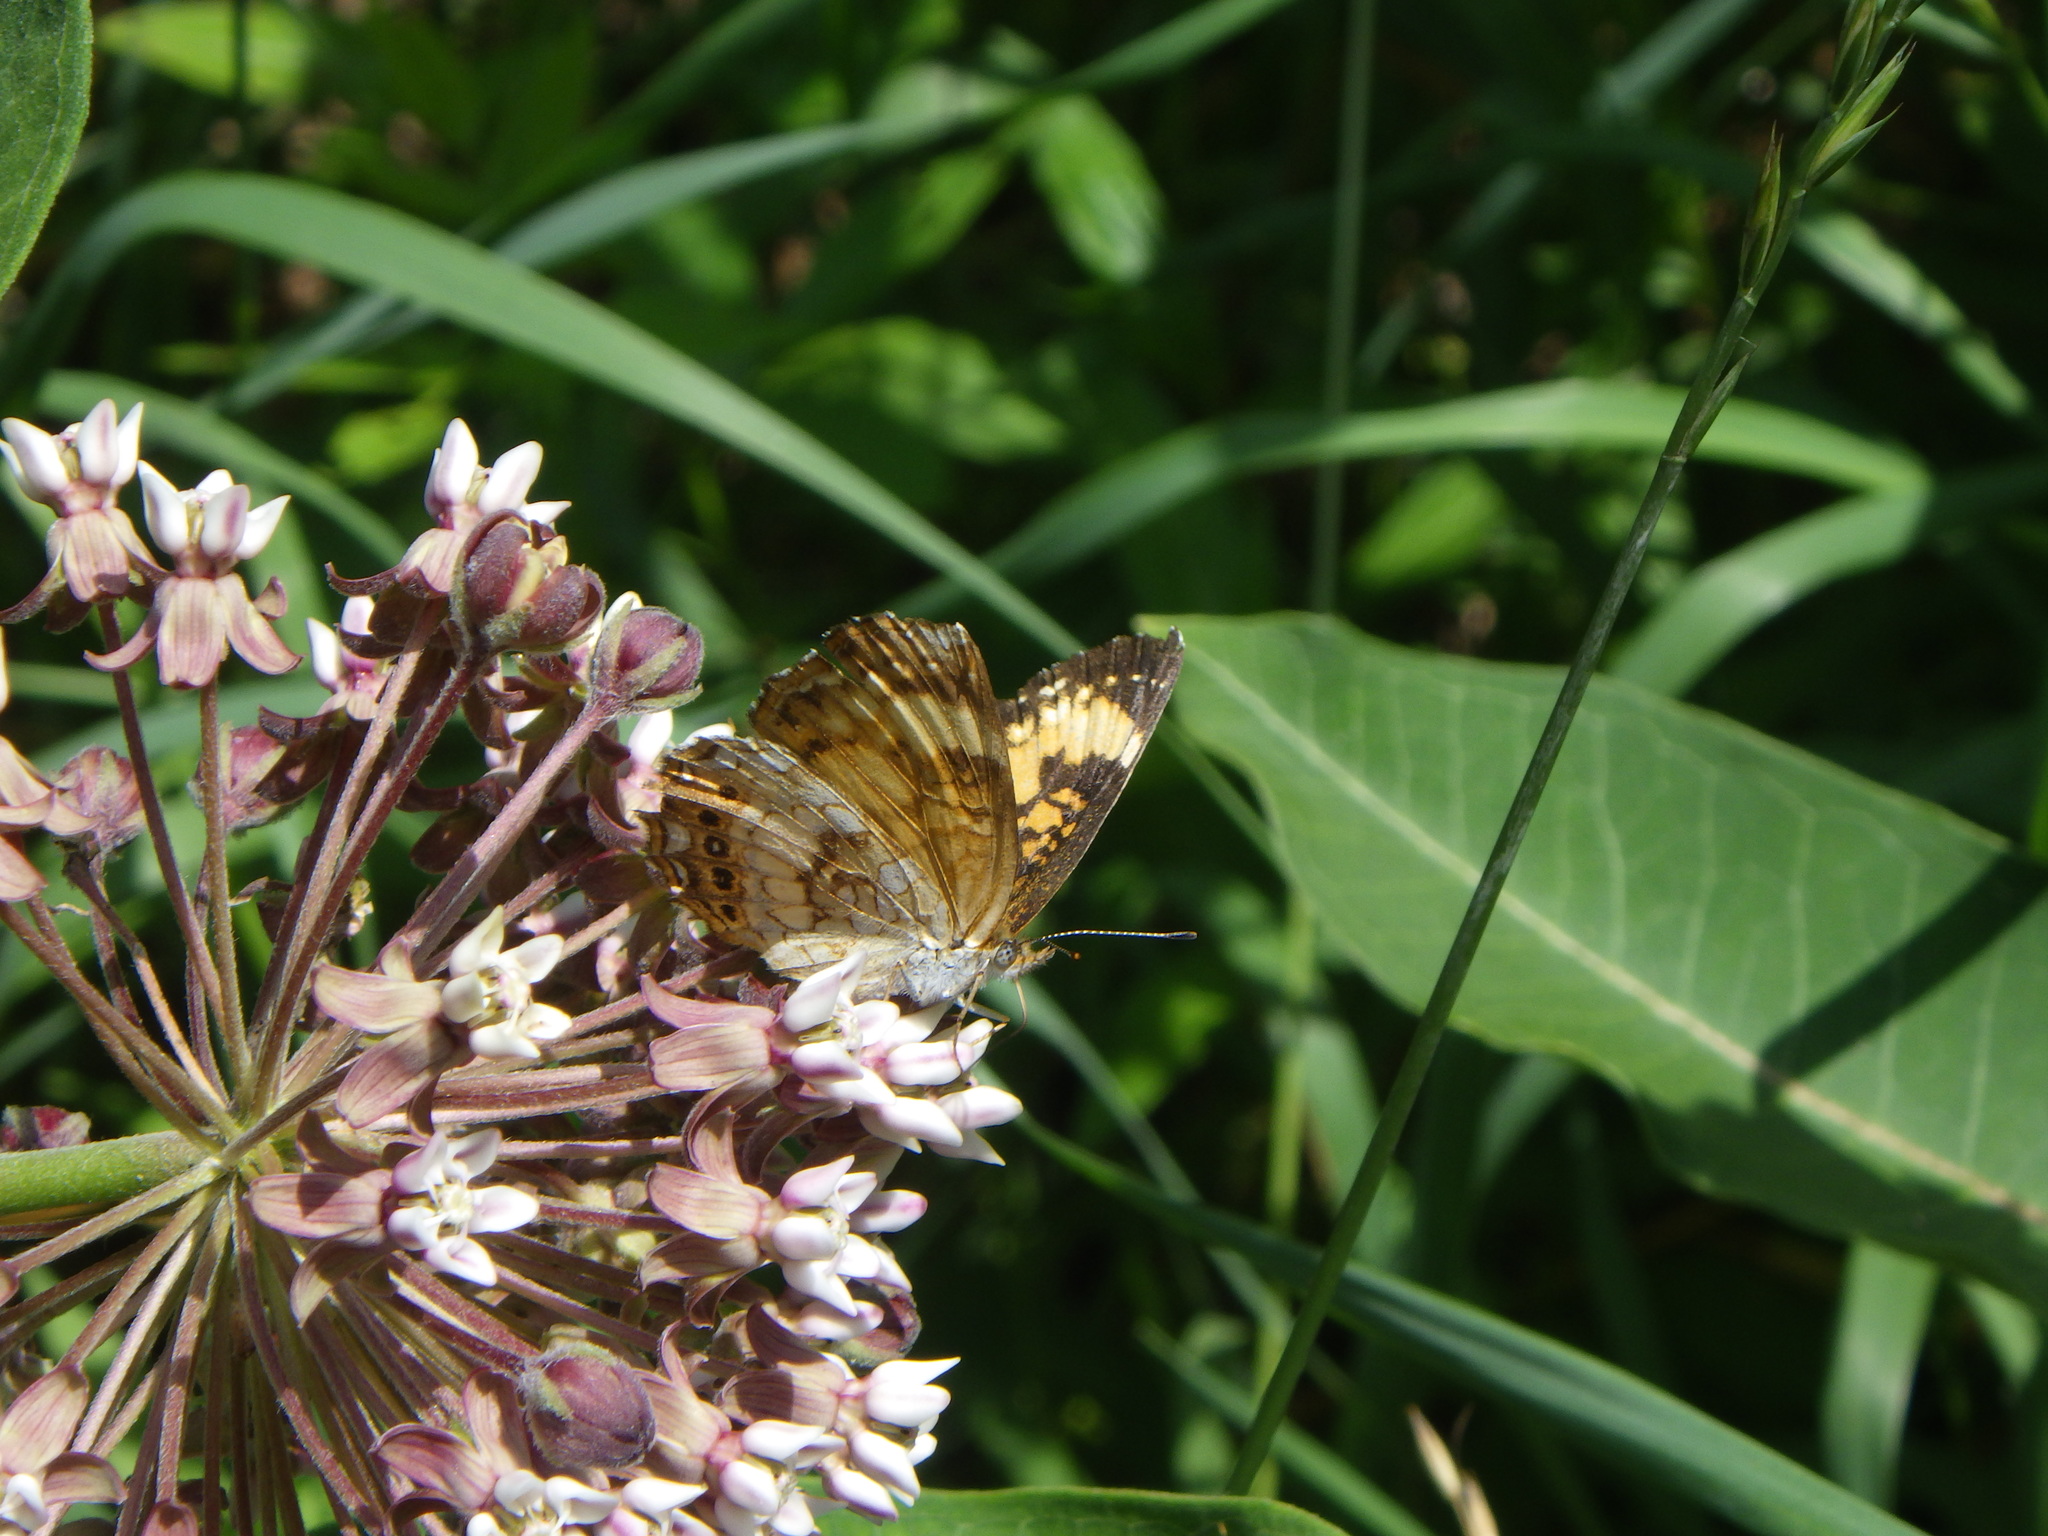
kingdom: Animalia
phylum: Arthropoda
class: Insecta
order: Lepidoptera
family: Nymphalidae
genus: Chlosyne
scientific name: Chlosyne nycteis
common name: Silvery checkerspot
